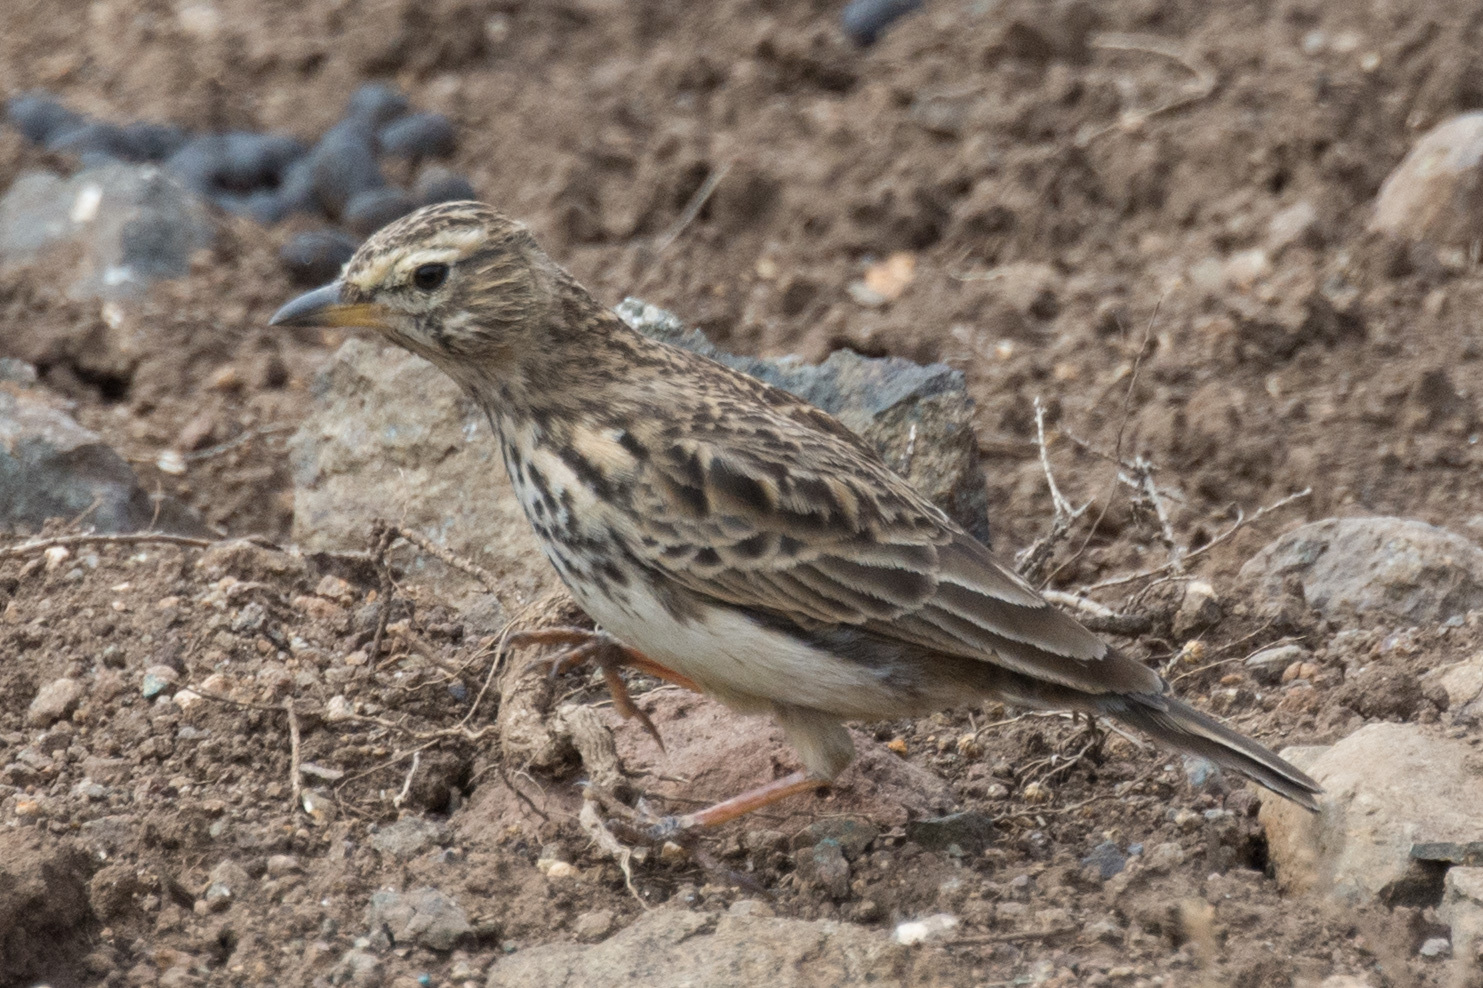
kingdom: Animalia
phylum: Chordata
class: Aves
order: Passeriformes
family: Alaudidae
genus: Galerida
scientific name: Galerida magnirostris
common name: Large-billed lark
